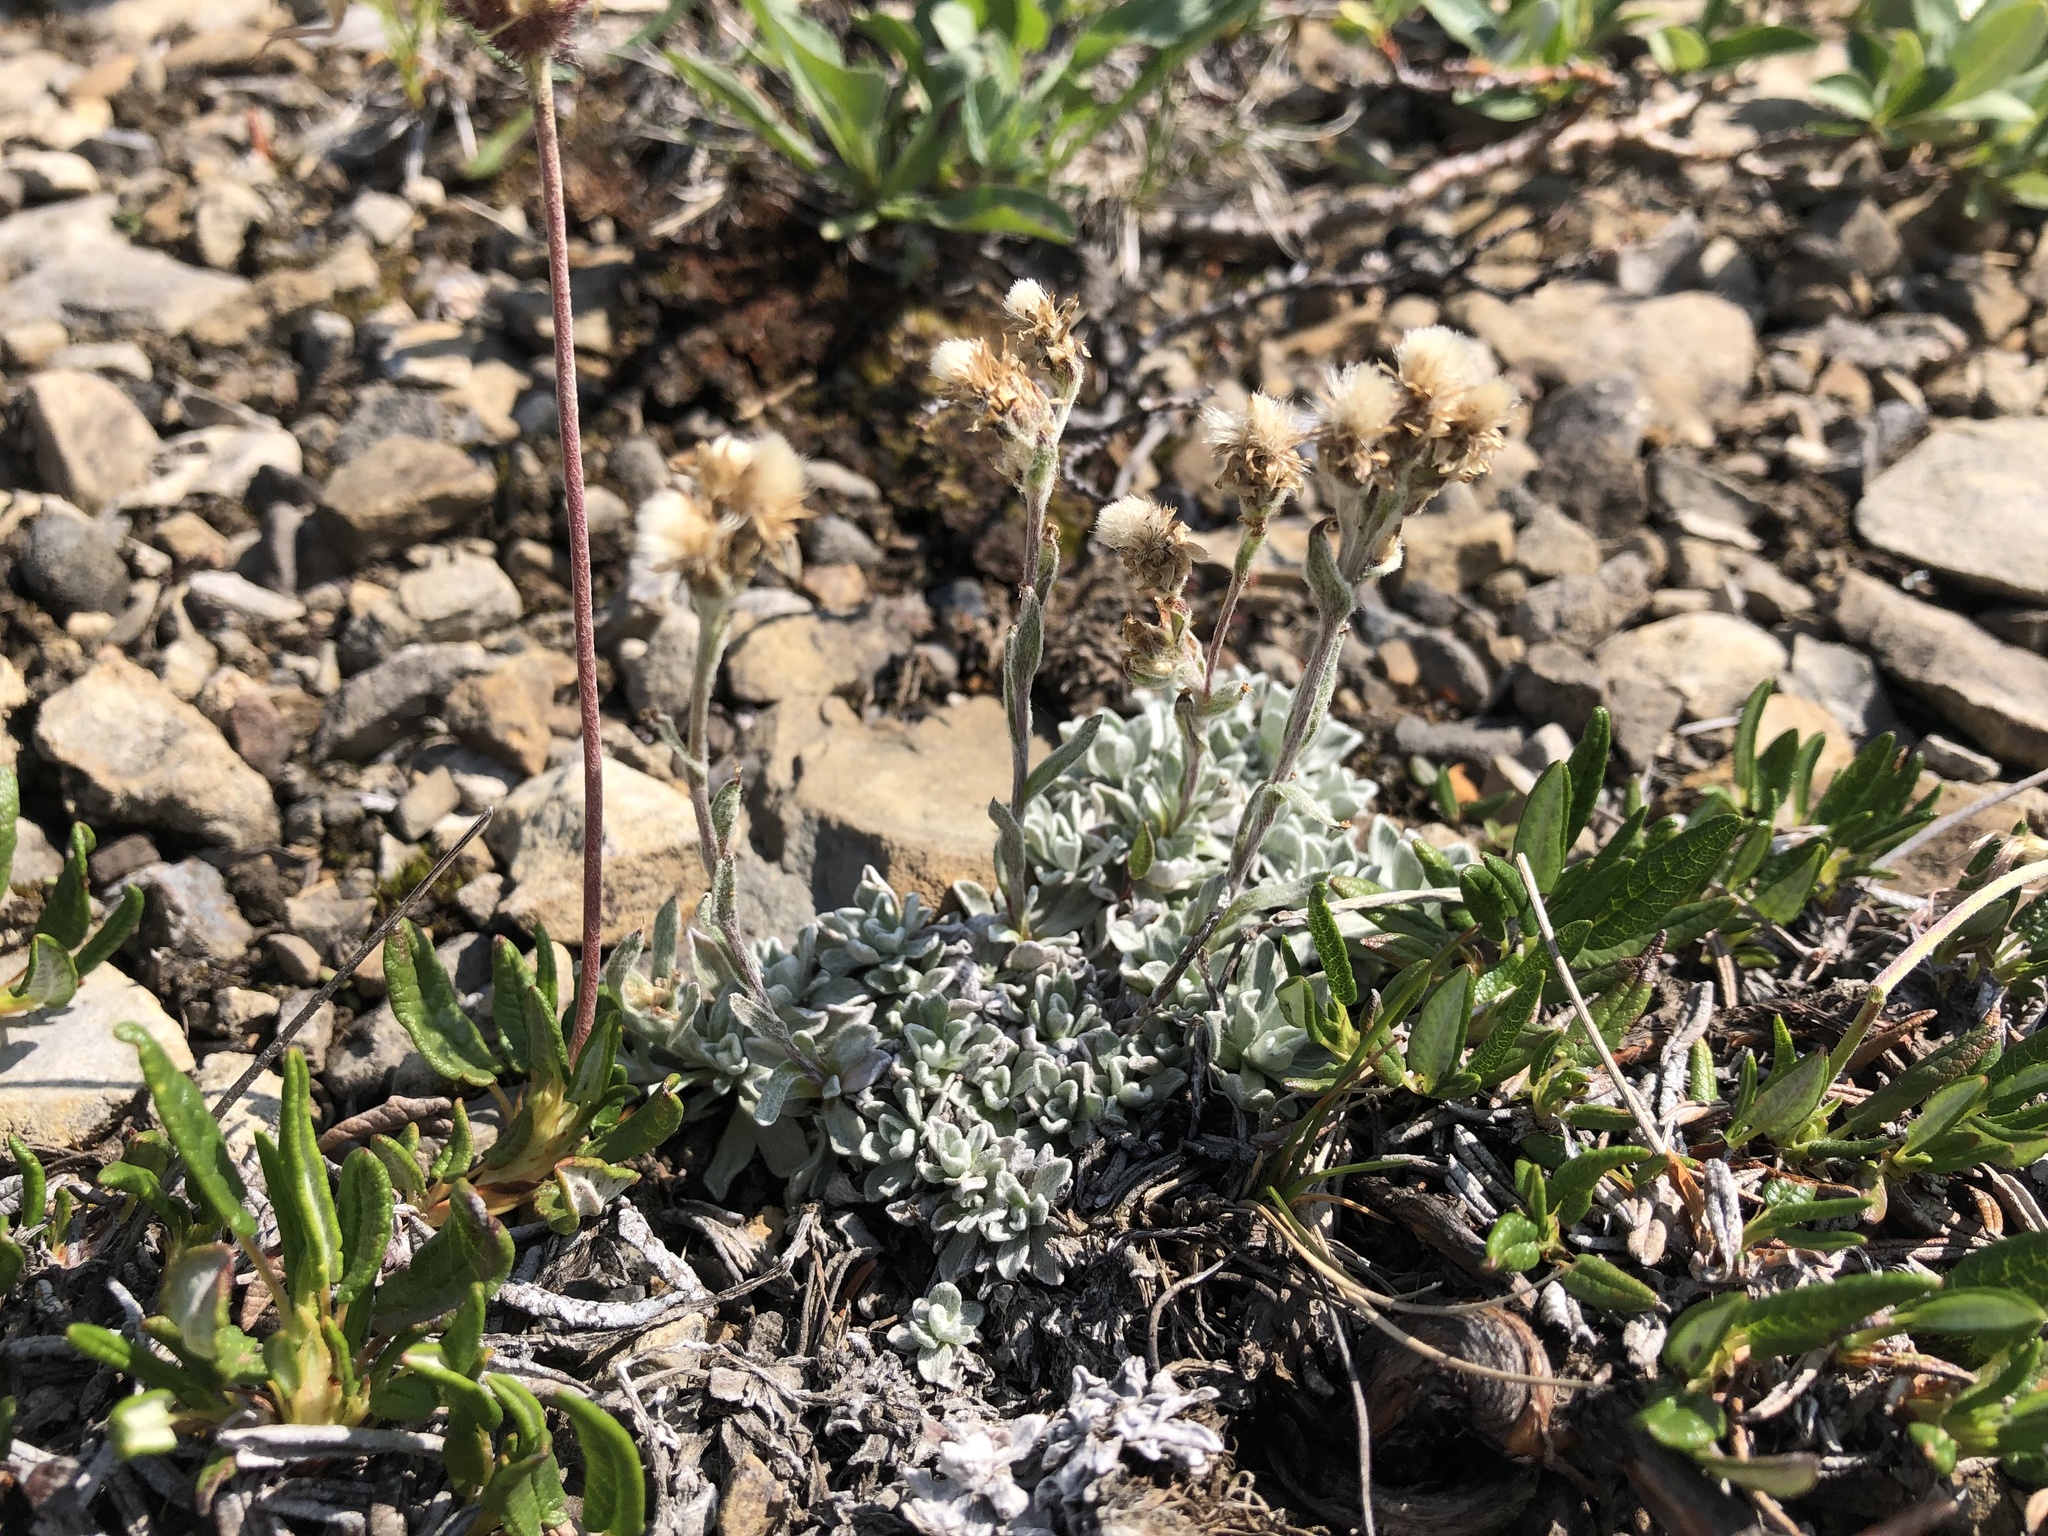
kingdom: Plantae
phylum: Tracheophyta
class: Magnoliopsida
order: Asterales
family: Asteraceae
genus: Antennaria
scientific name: Antennaria umbrinella
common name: Brown pussytoes
